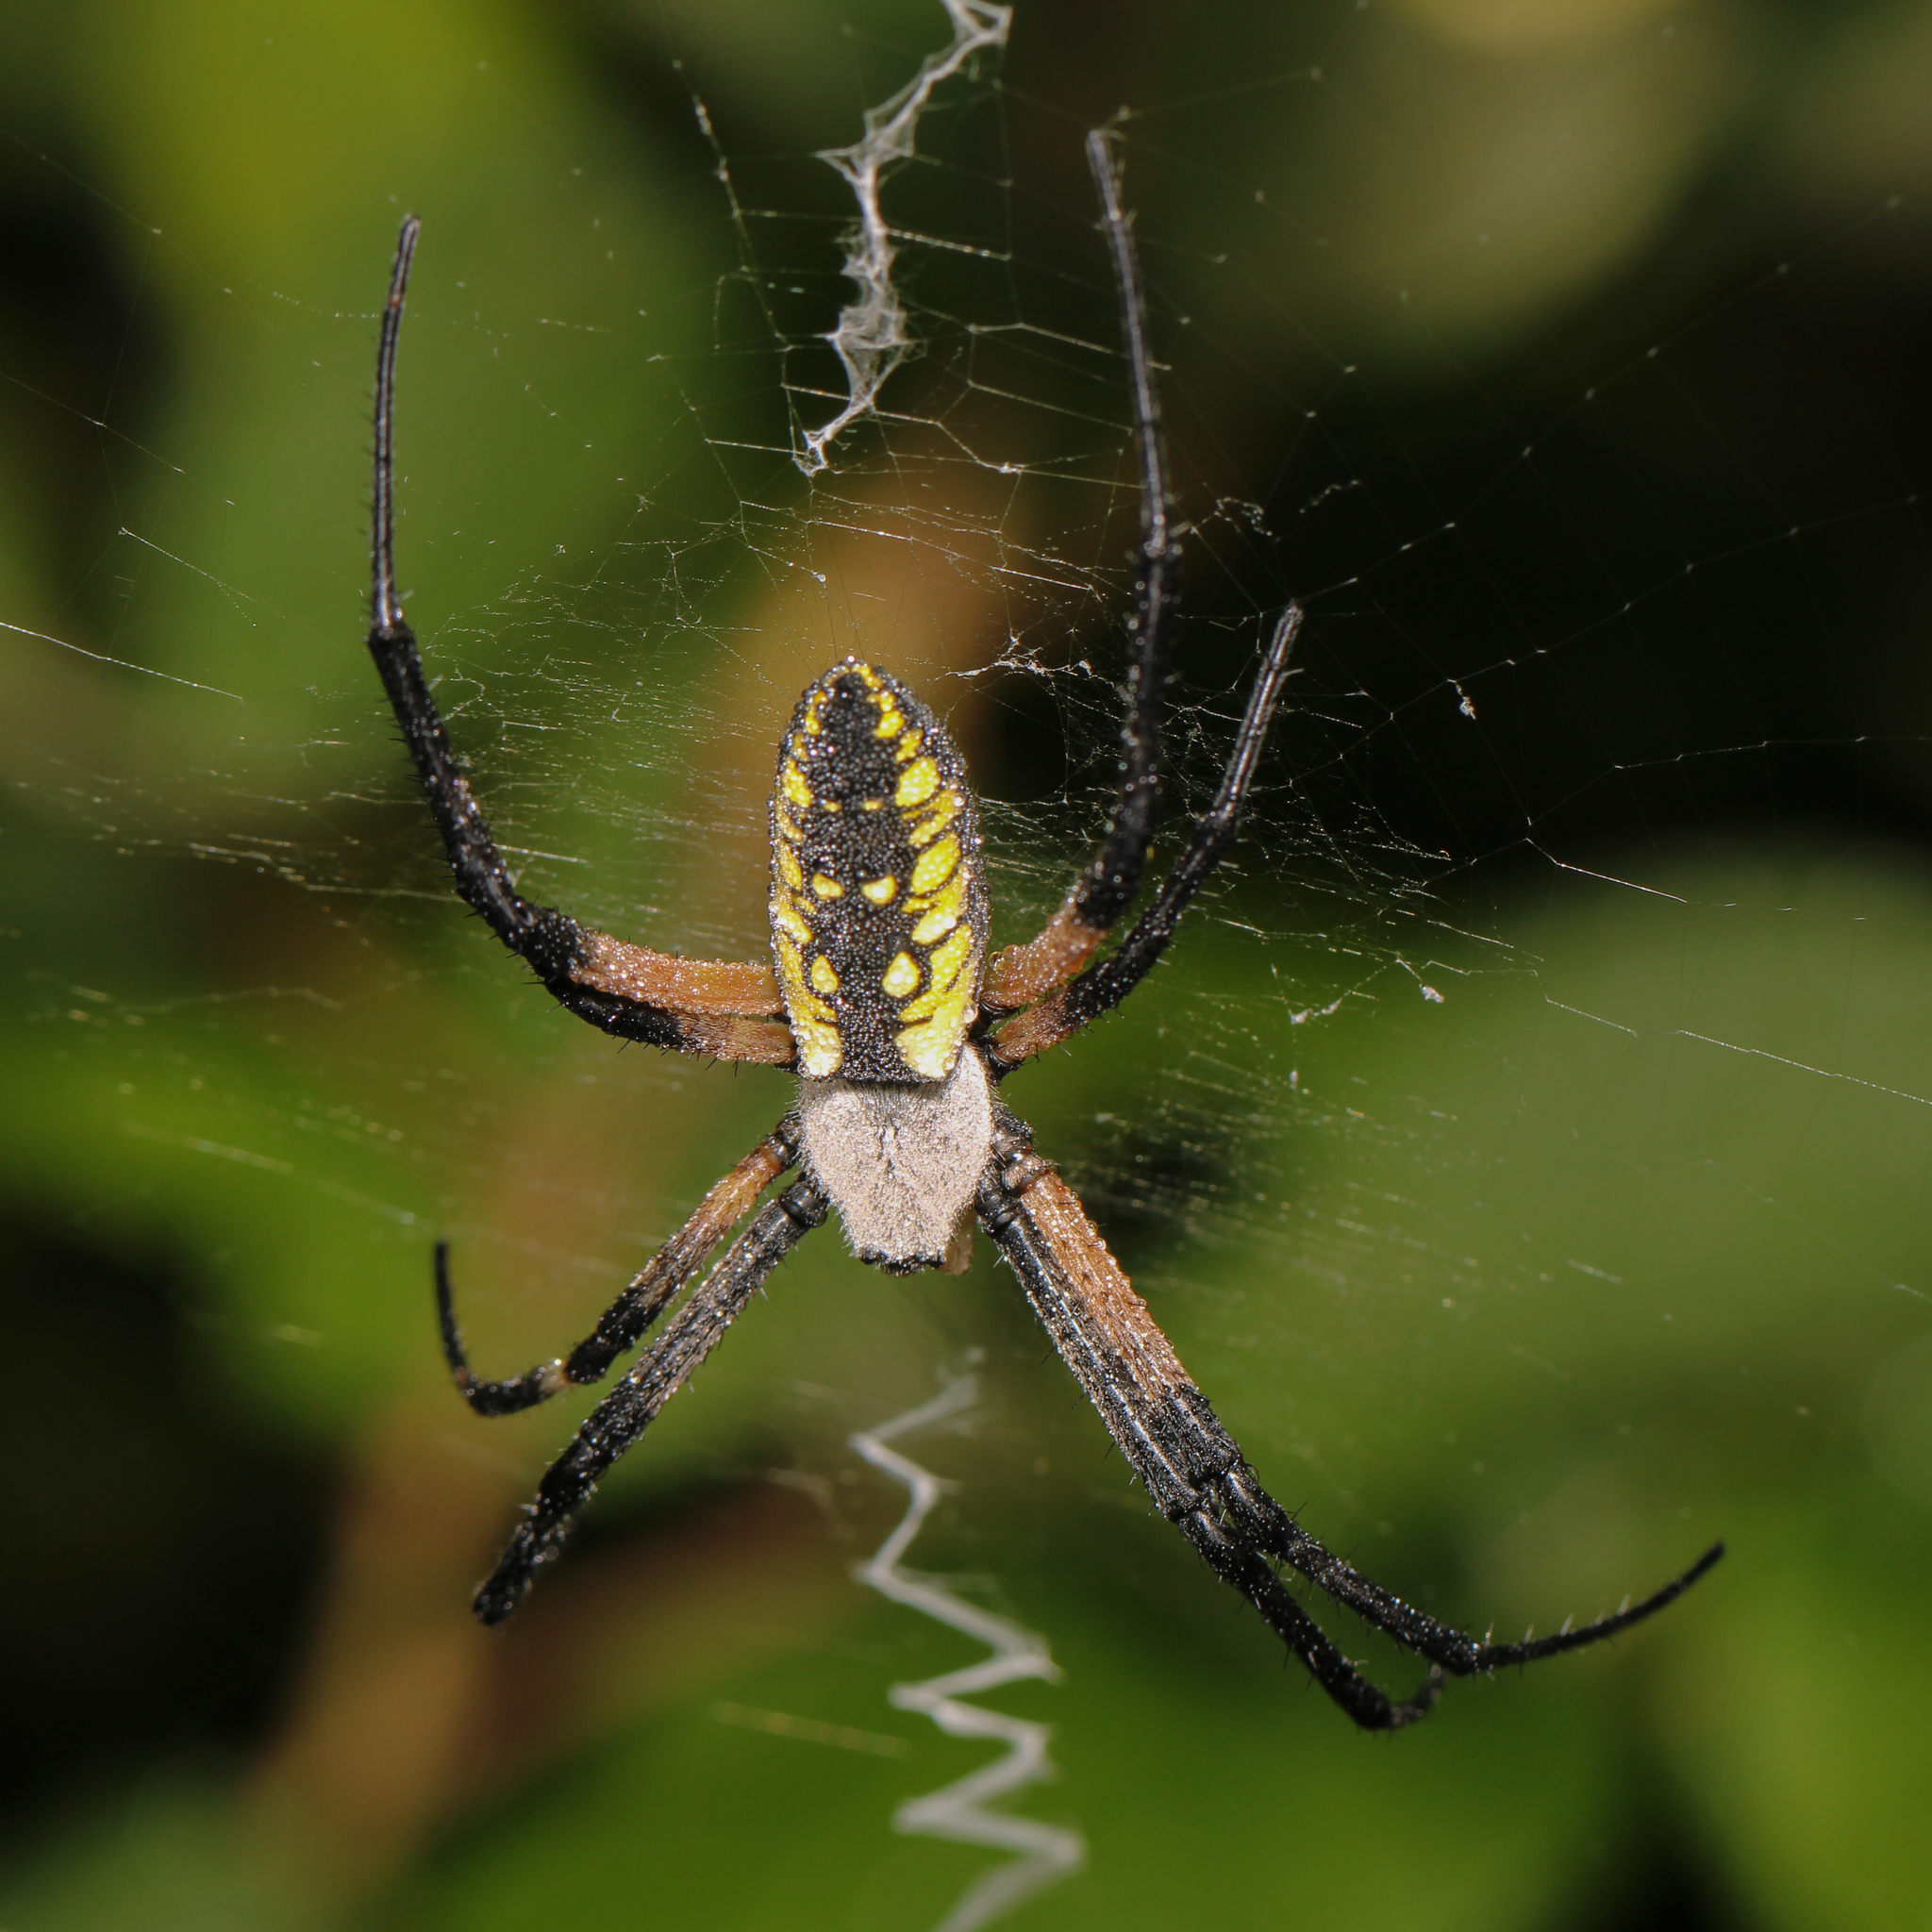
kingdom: Animalia
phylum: Arthropoda
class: Arachnida
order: Araneae
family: Araneidae
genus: Argiope
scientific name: Argiope aurantia
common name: Orb weavers
